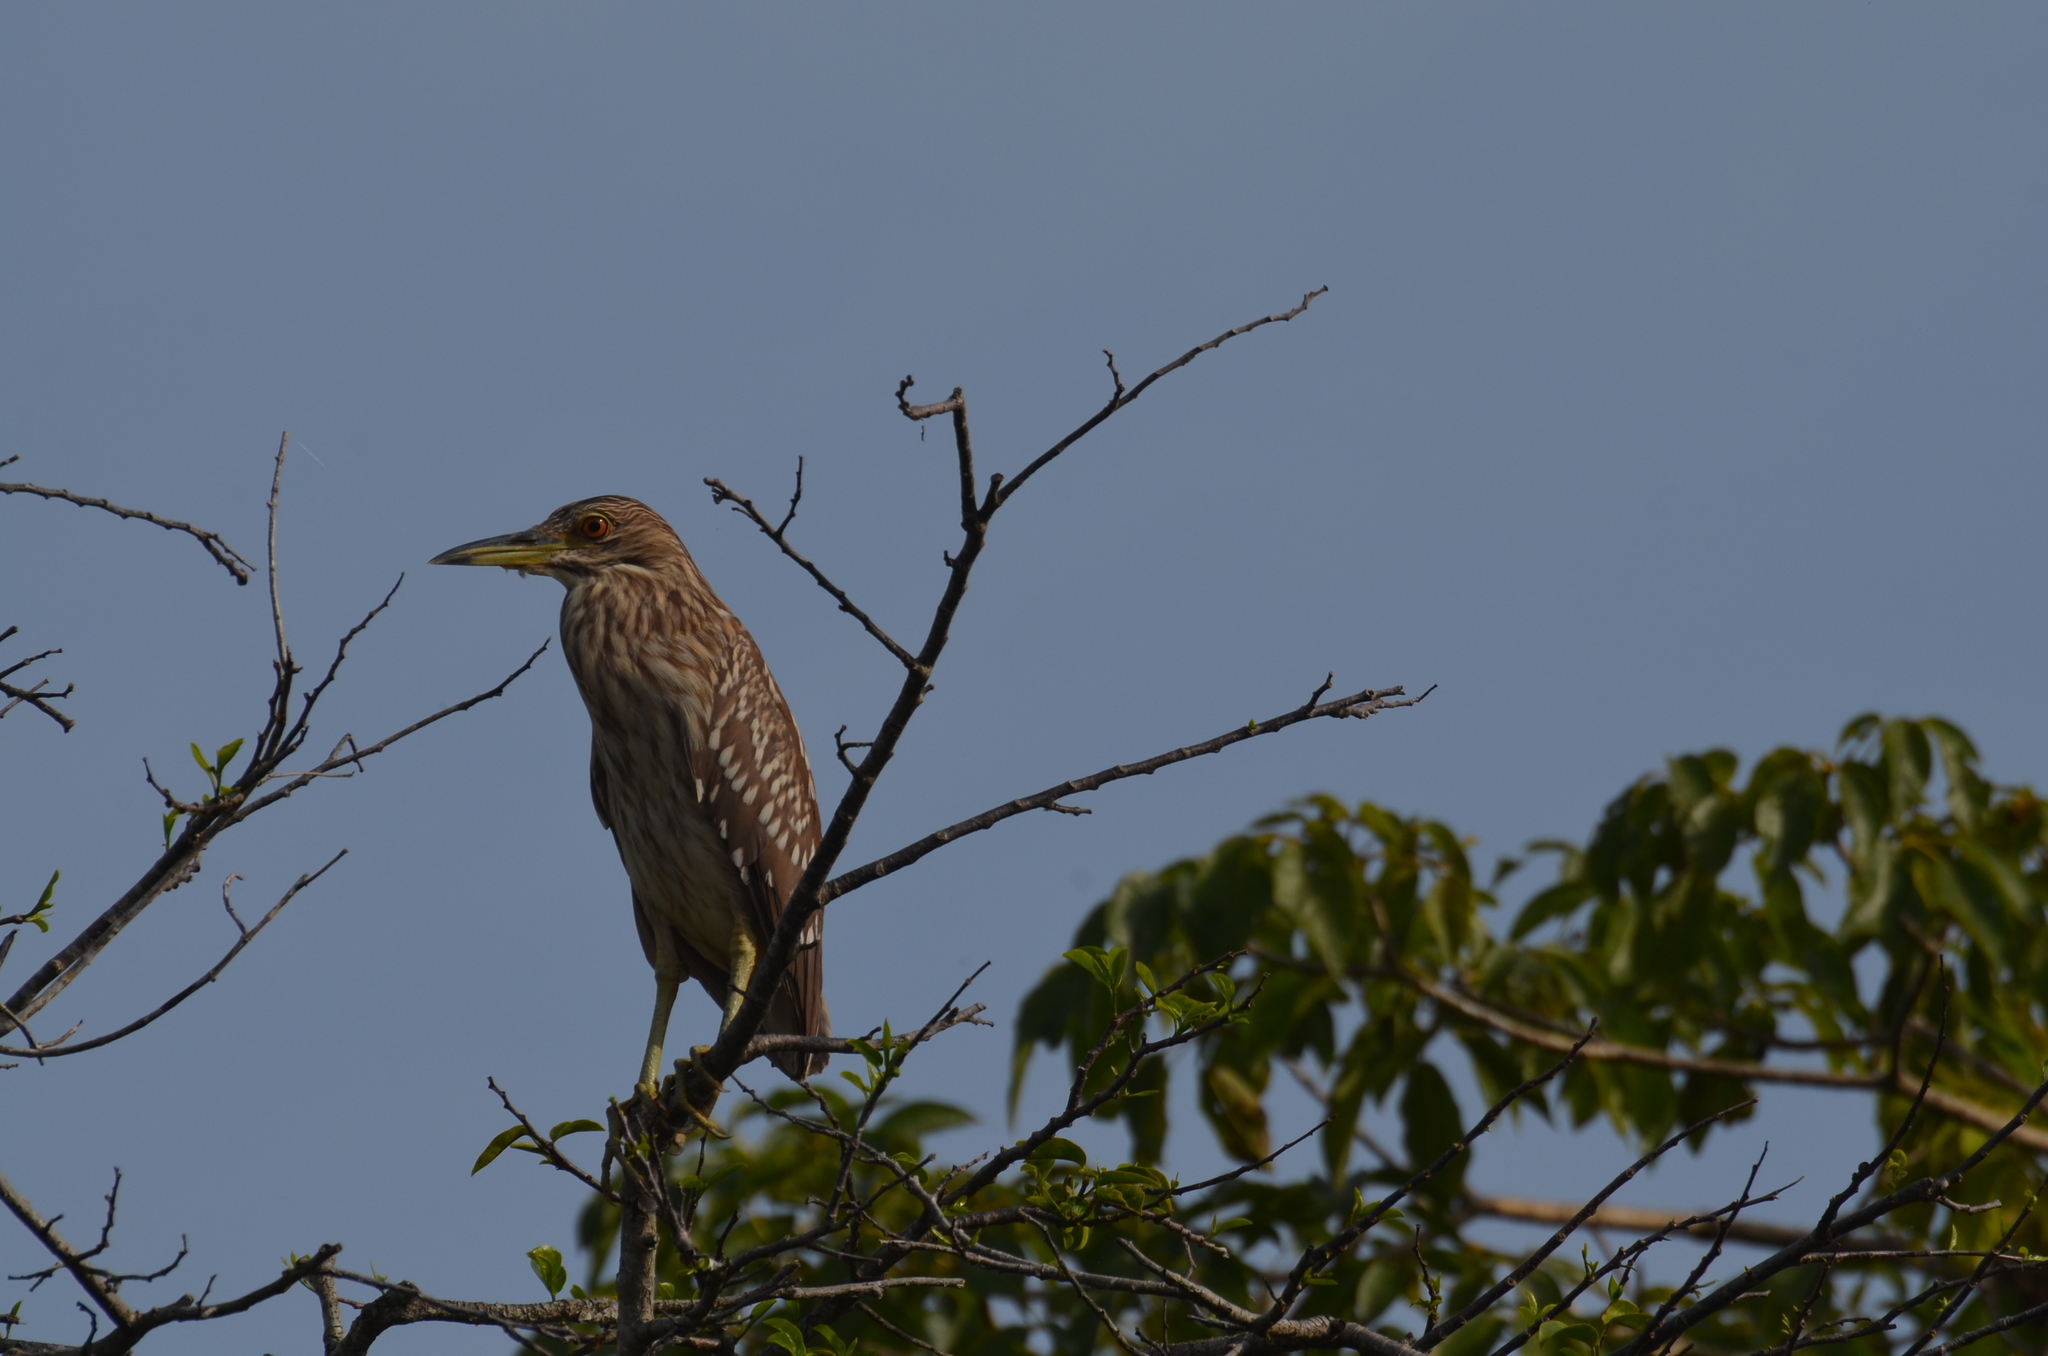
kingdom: Animalia
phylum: Chordata
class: Aves
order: Pelecaniformes
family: Ardeidae
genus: Nycticorax
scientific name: Nycticorax nycticorax
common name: Black-crowned night heron
